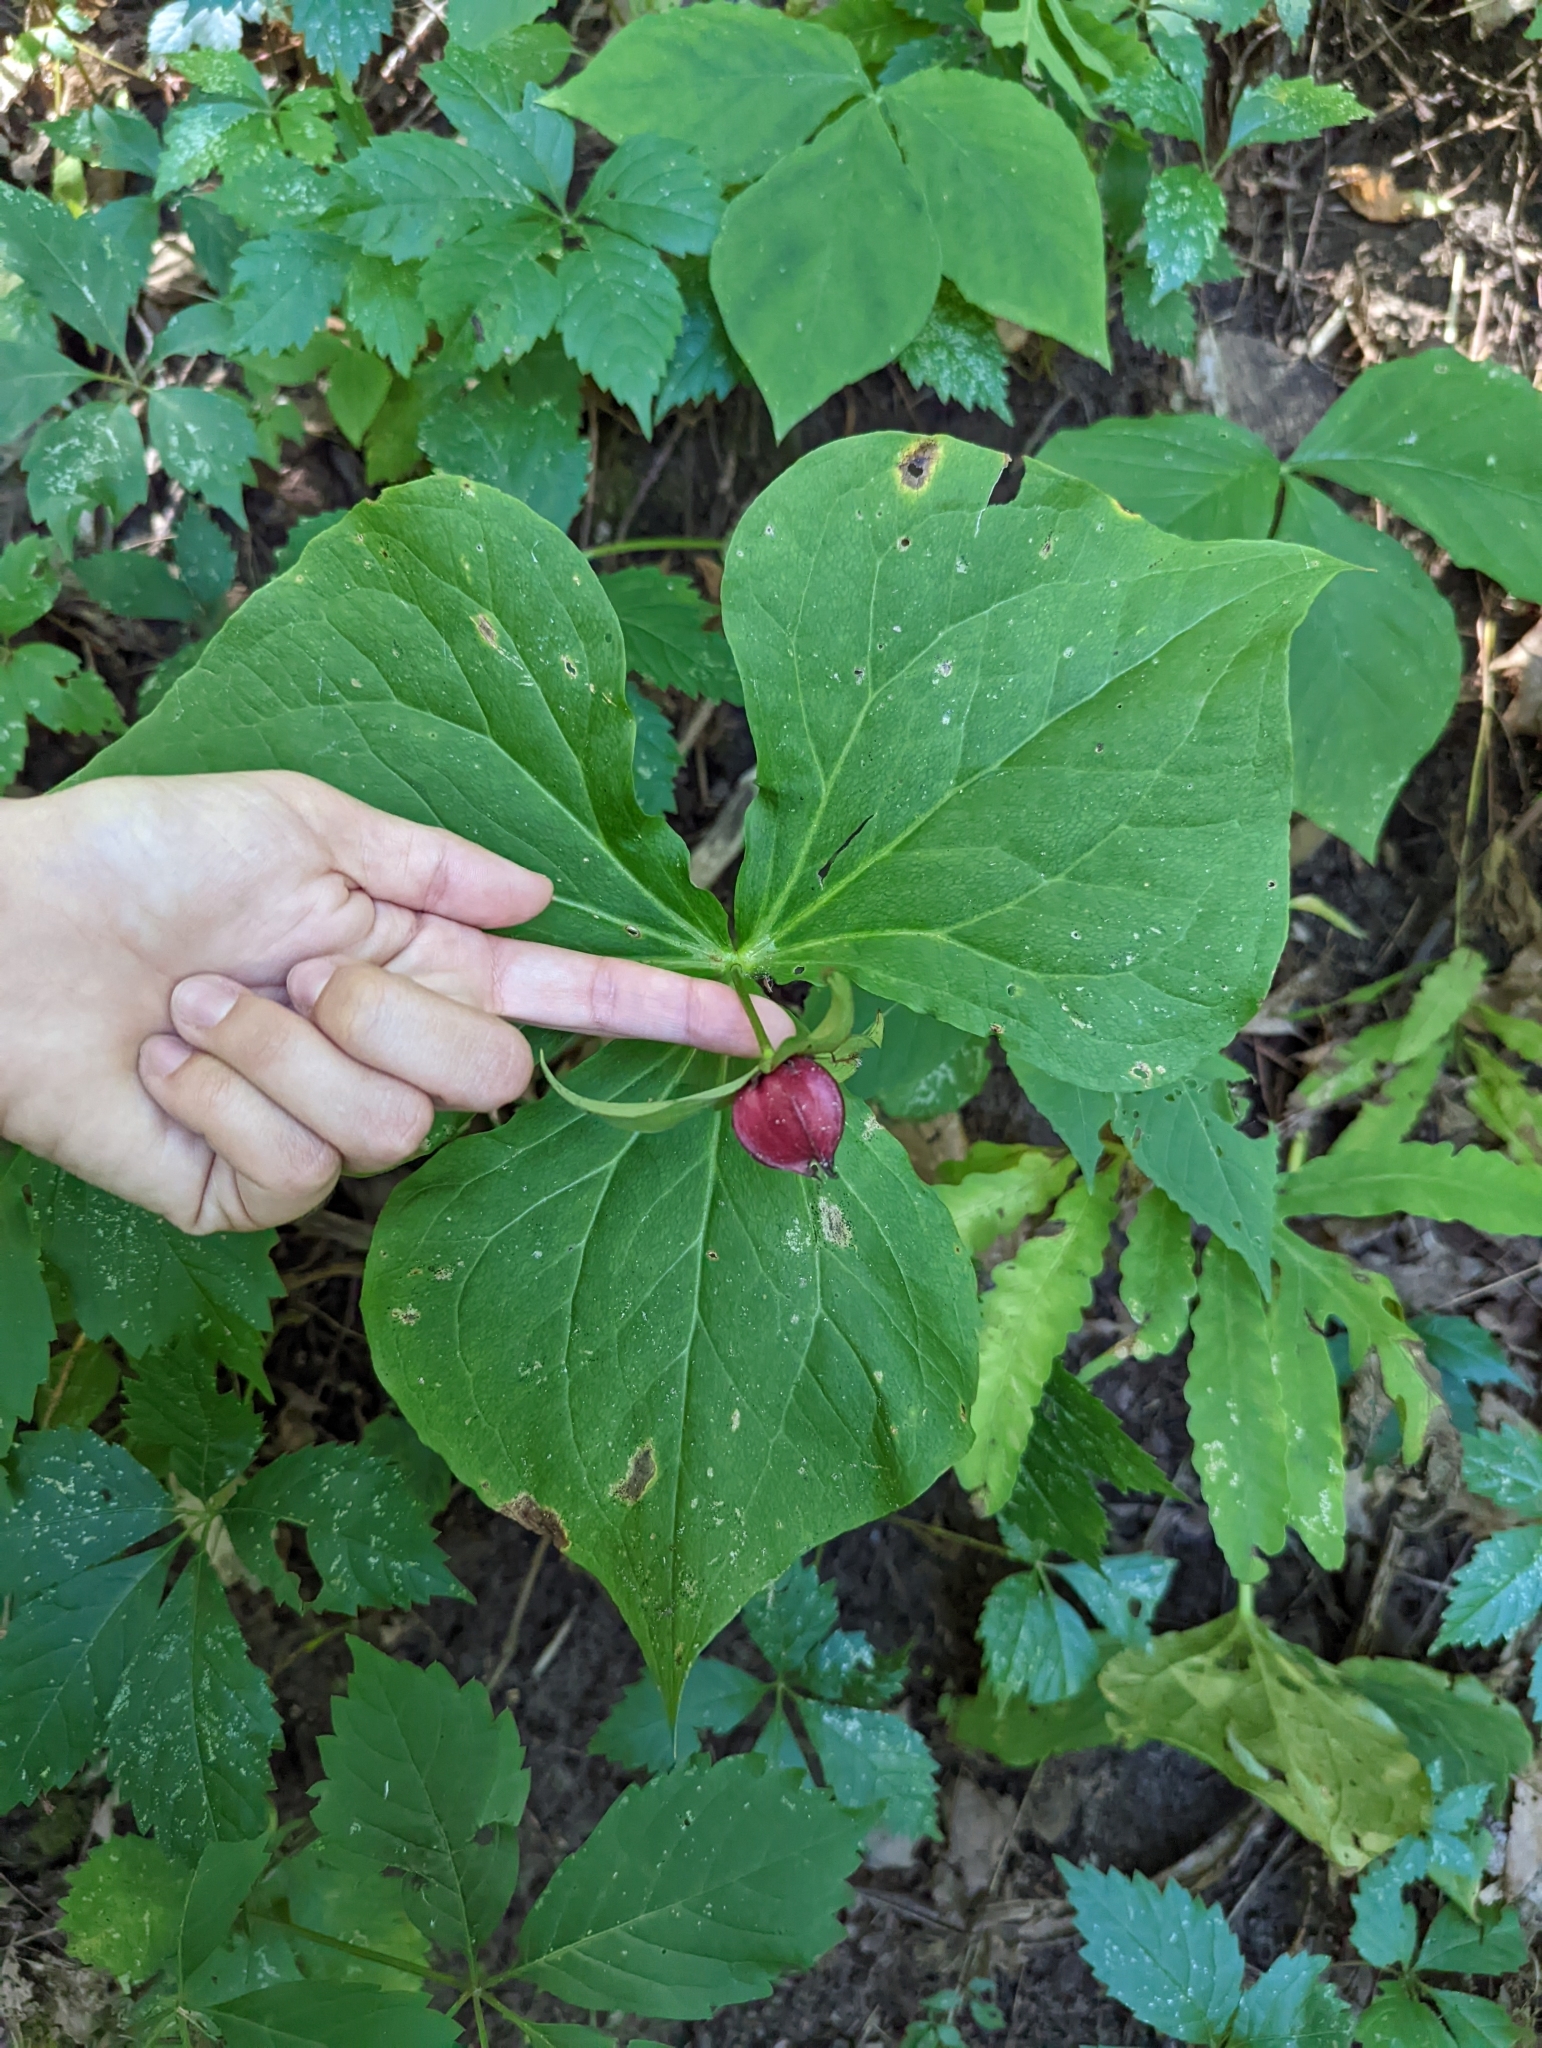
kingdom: Plantae
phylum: Tracheophyta
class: Liliopsida
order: Liliales
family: Melanthiaceae
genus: Trillium
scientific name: Trillium erectum
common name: Purple trillium
